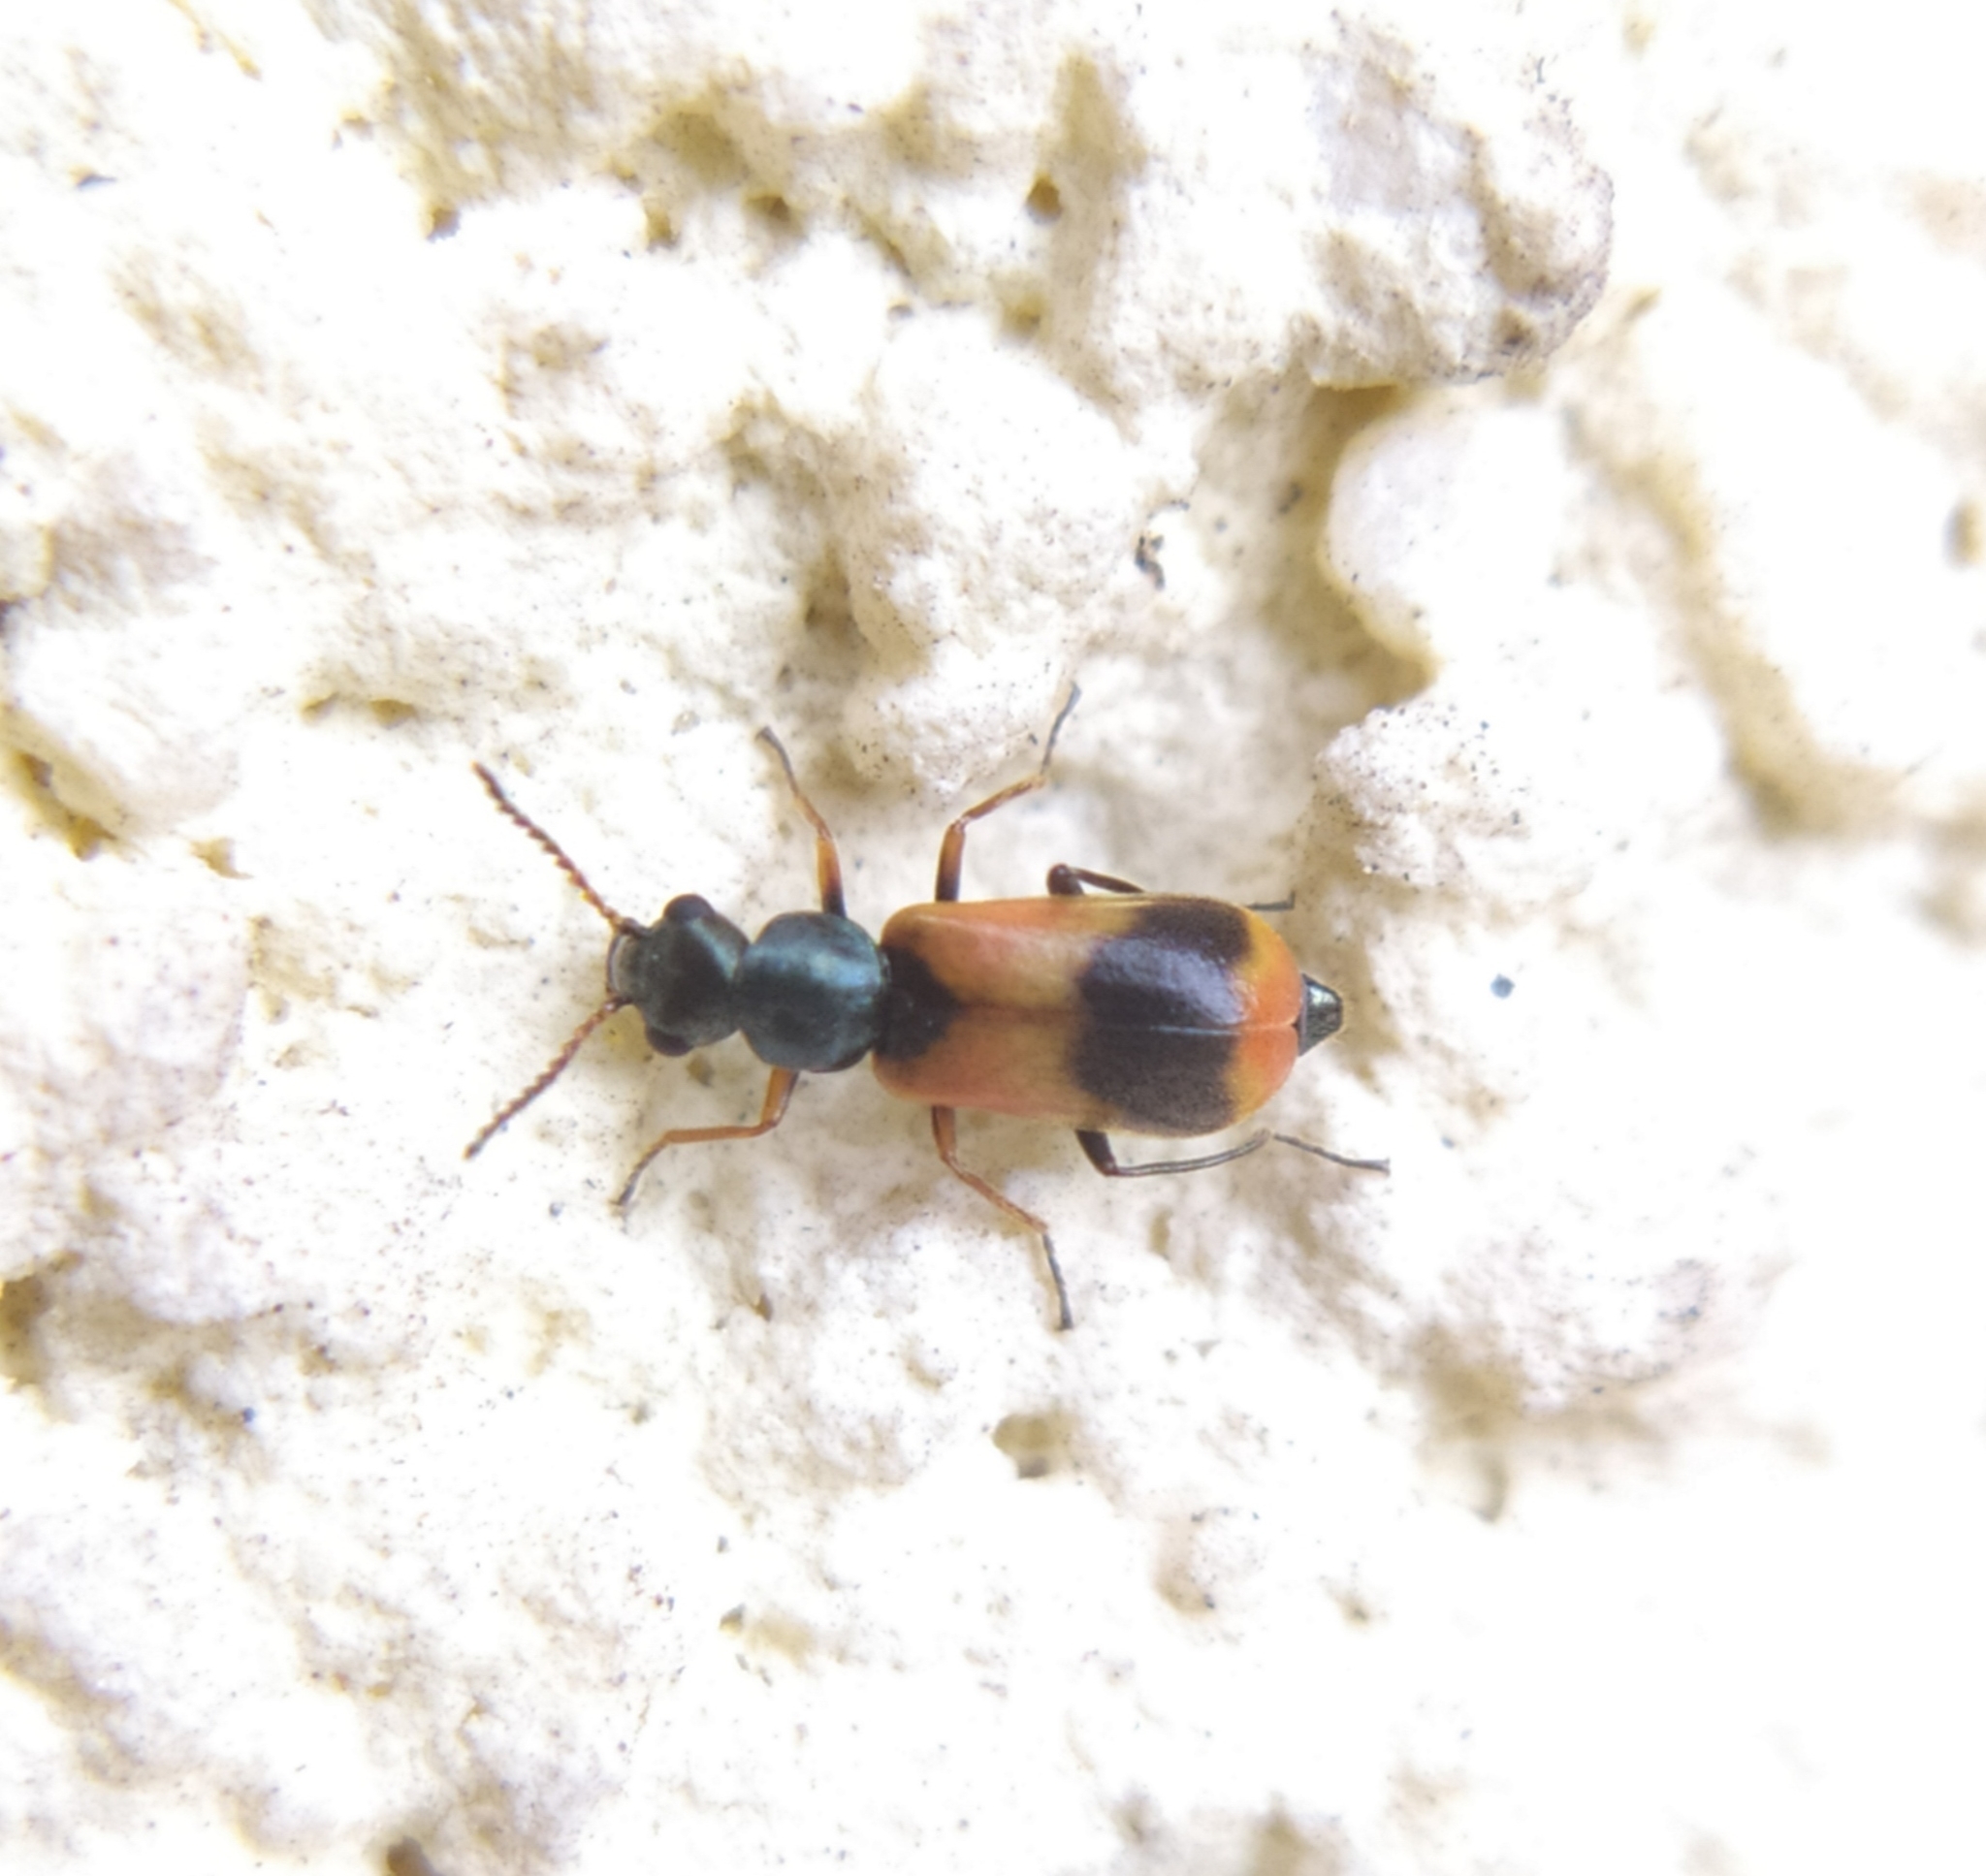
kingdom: Animalia
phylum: Arthropoda
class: Insecta
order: Coleoptera
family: Melyridae
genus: Anthocomus
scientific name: Anthocomus equestris
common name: Black-banded soft-winged flower beetle
